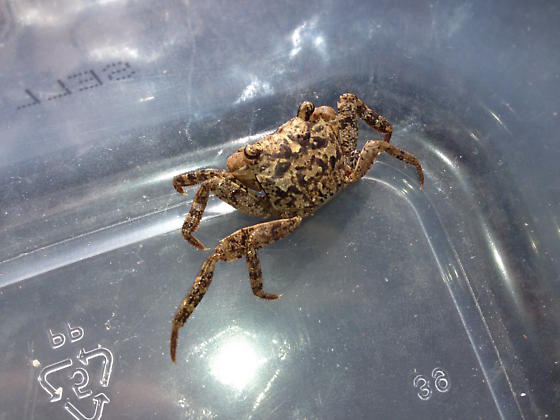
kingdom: Animalia
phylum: Arthropoda
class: Malacostraca
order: Decapoda
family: Sesarmidae
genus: Armases
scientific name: Armases ricordi
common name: Humic marsh crab
